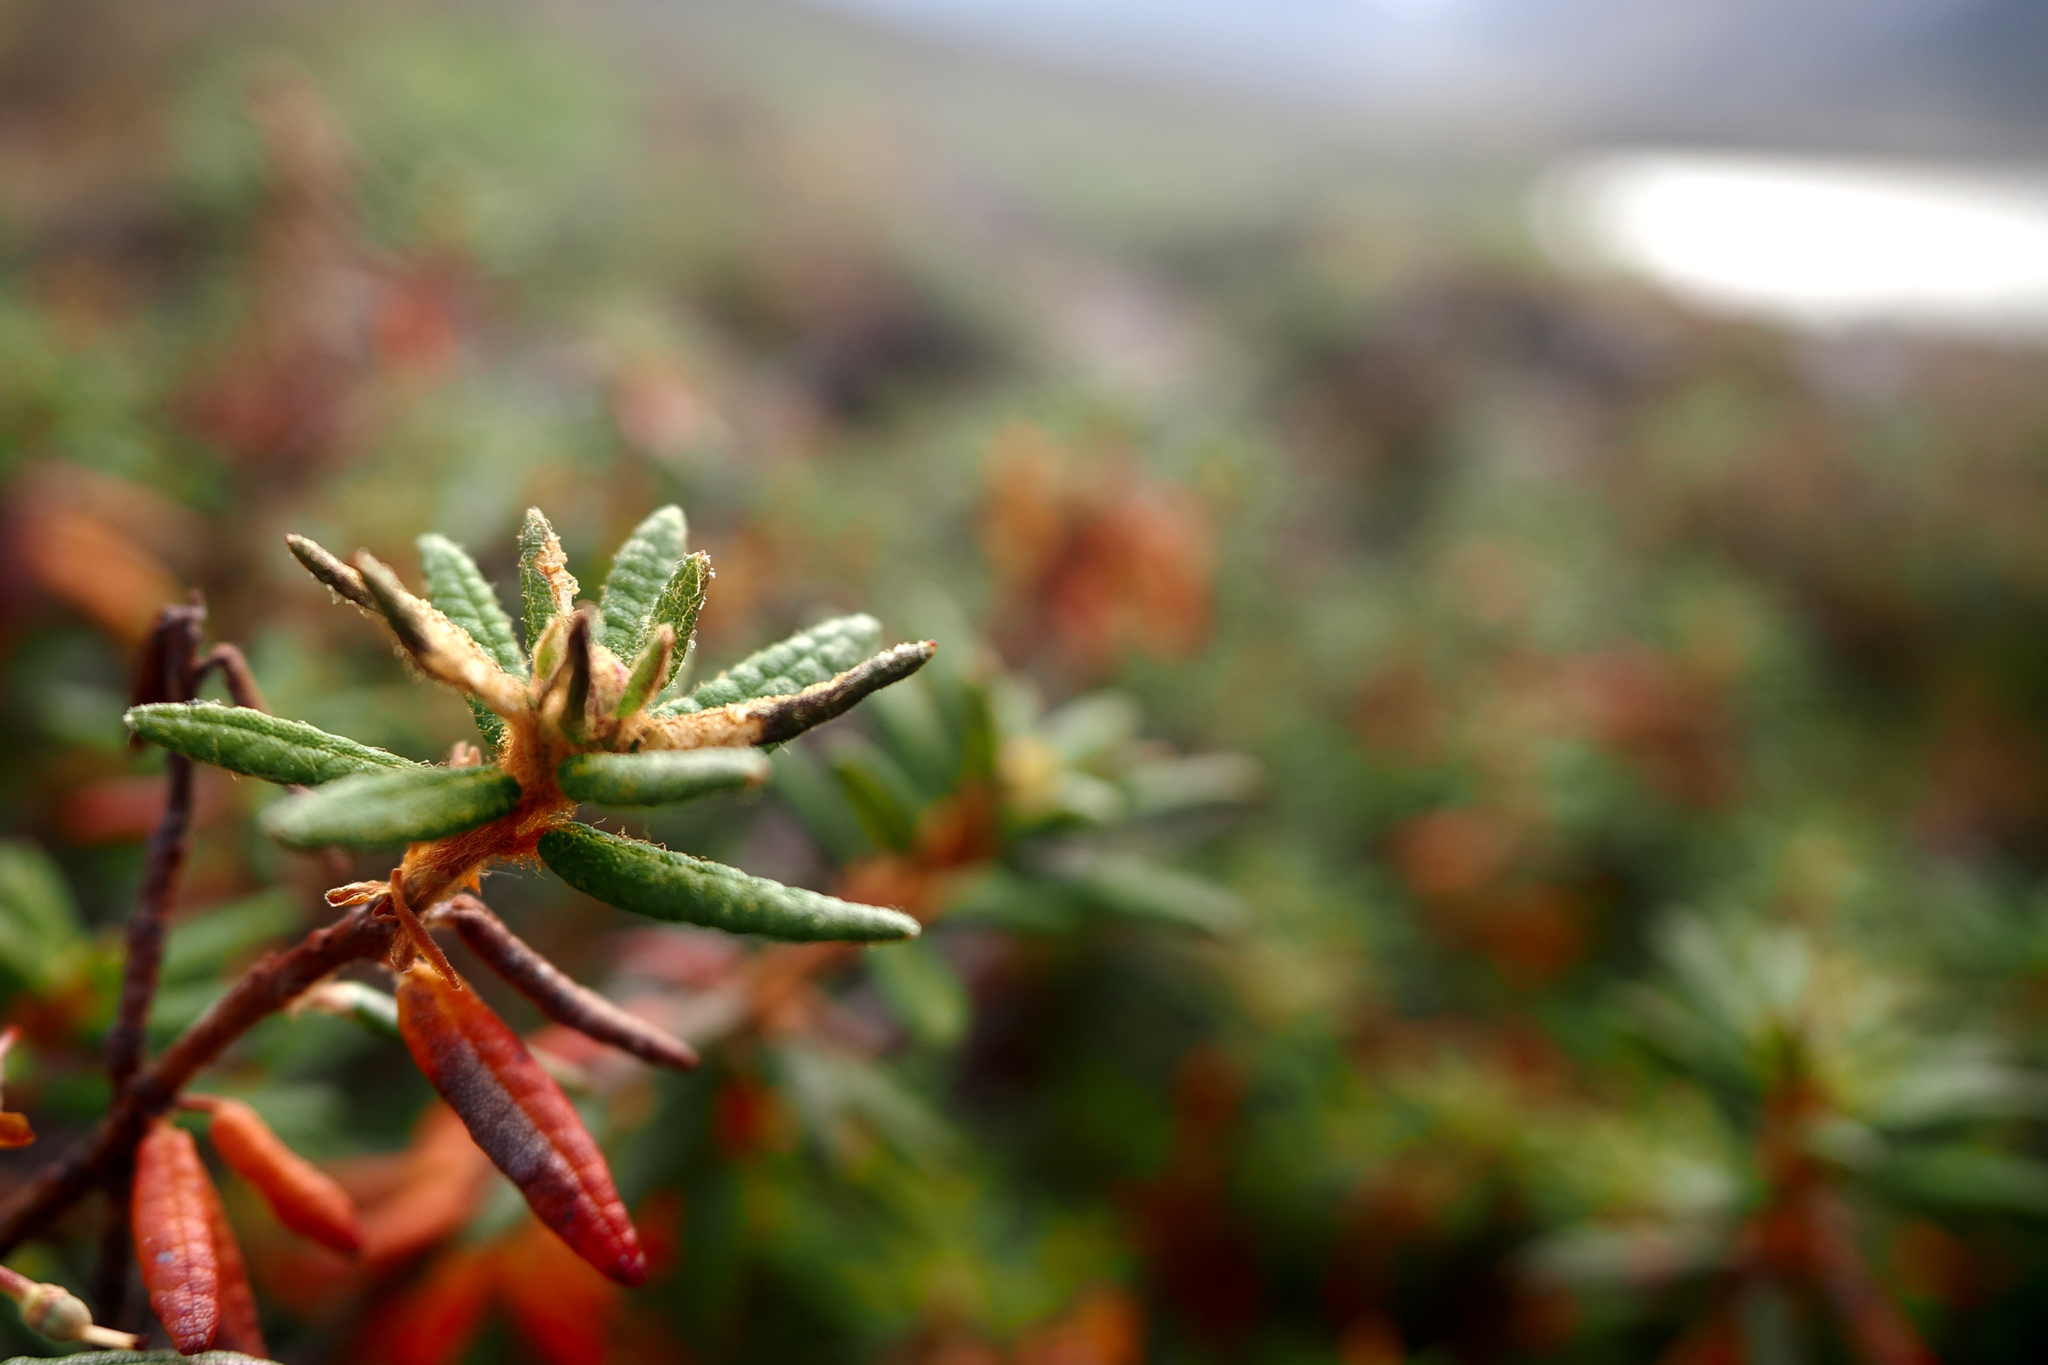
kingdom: Plantae
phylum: Tracheophyta
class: Magnoliopsida
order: Ericales
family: Ericaceae
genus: Rhododendron
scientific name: Rhododendron groenlandicum
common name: Bog labrador tea
